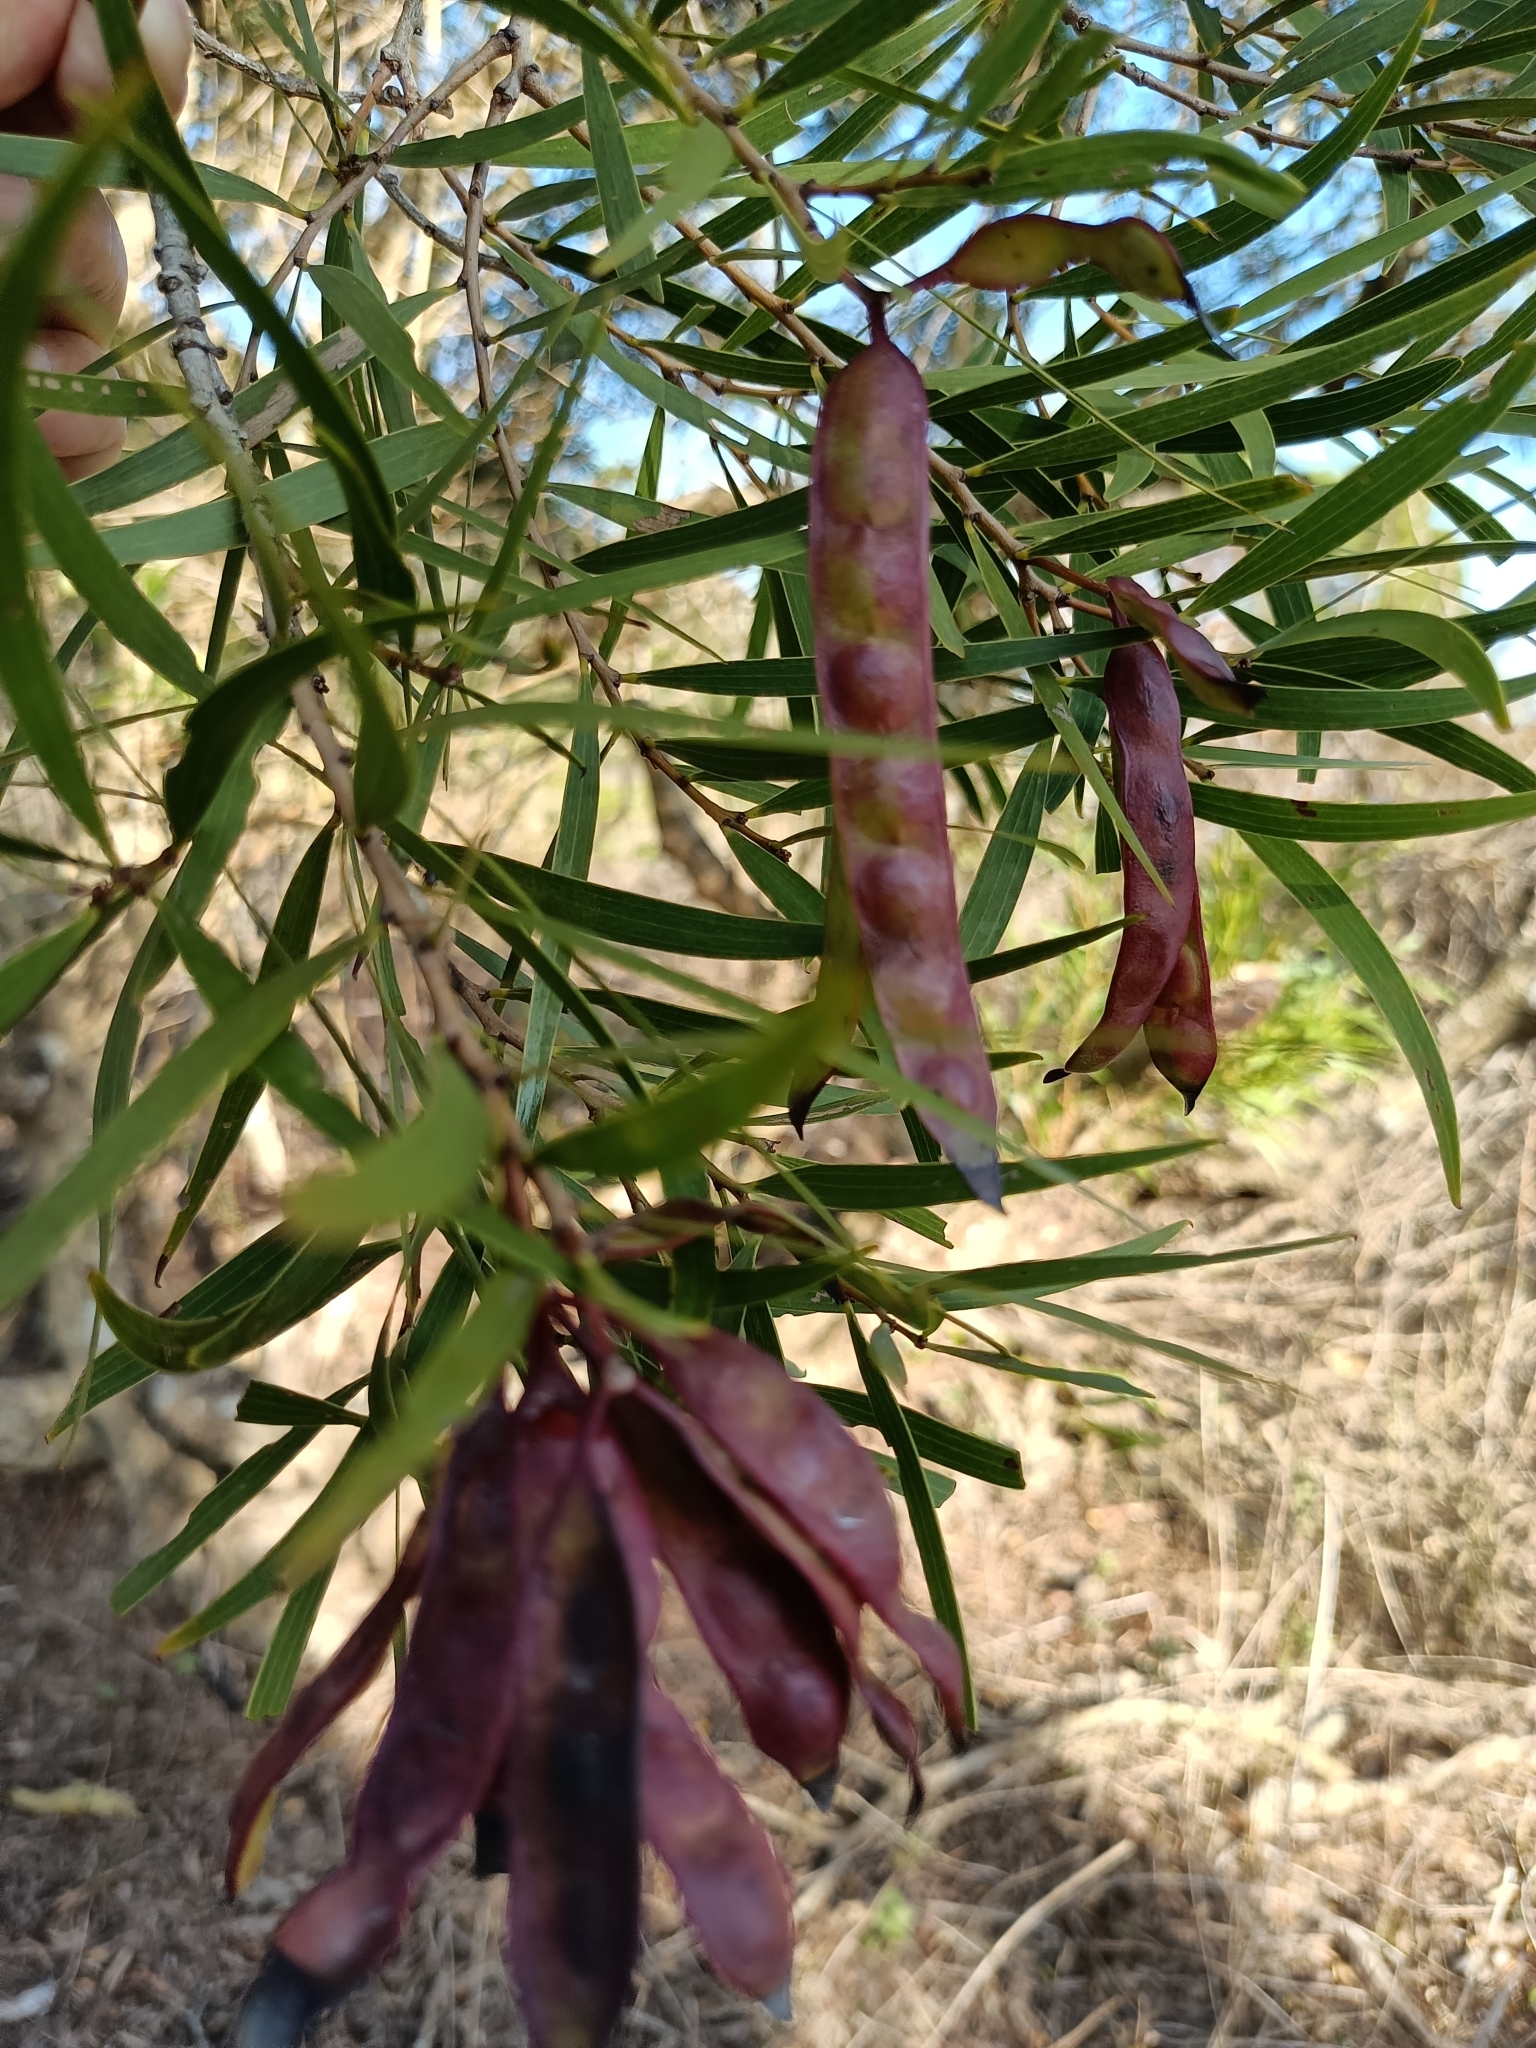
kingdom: Plantae
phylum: Tracheophyta
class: Magnoliopsida
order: Fabales
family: Fabaceae
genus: Acacia
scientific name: Acacia confusa
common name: Formosan koa
